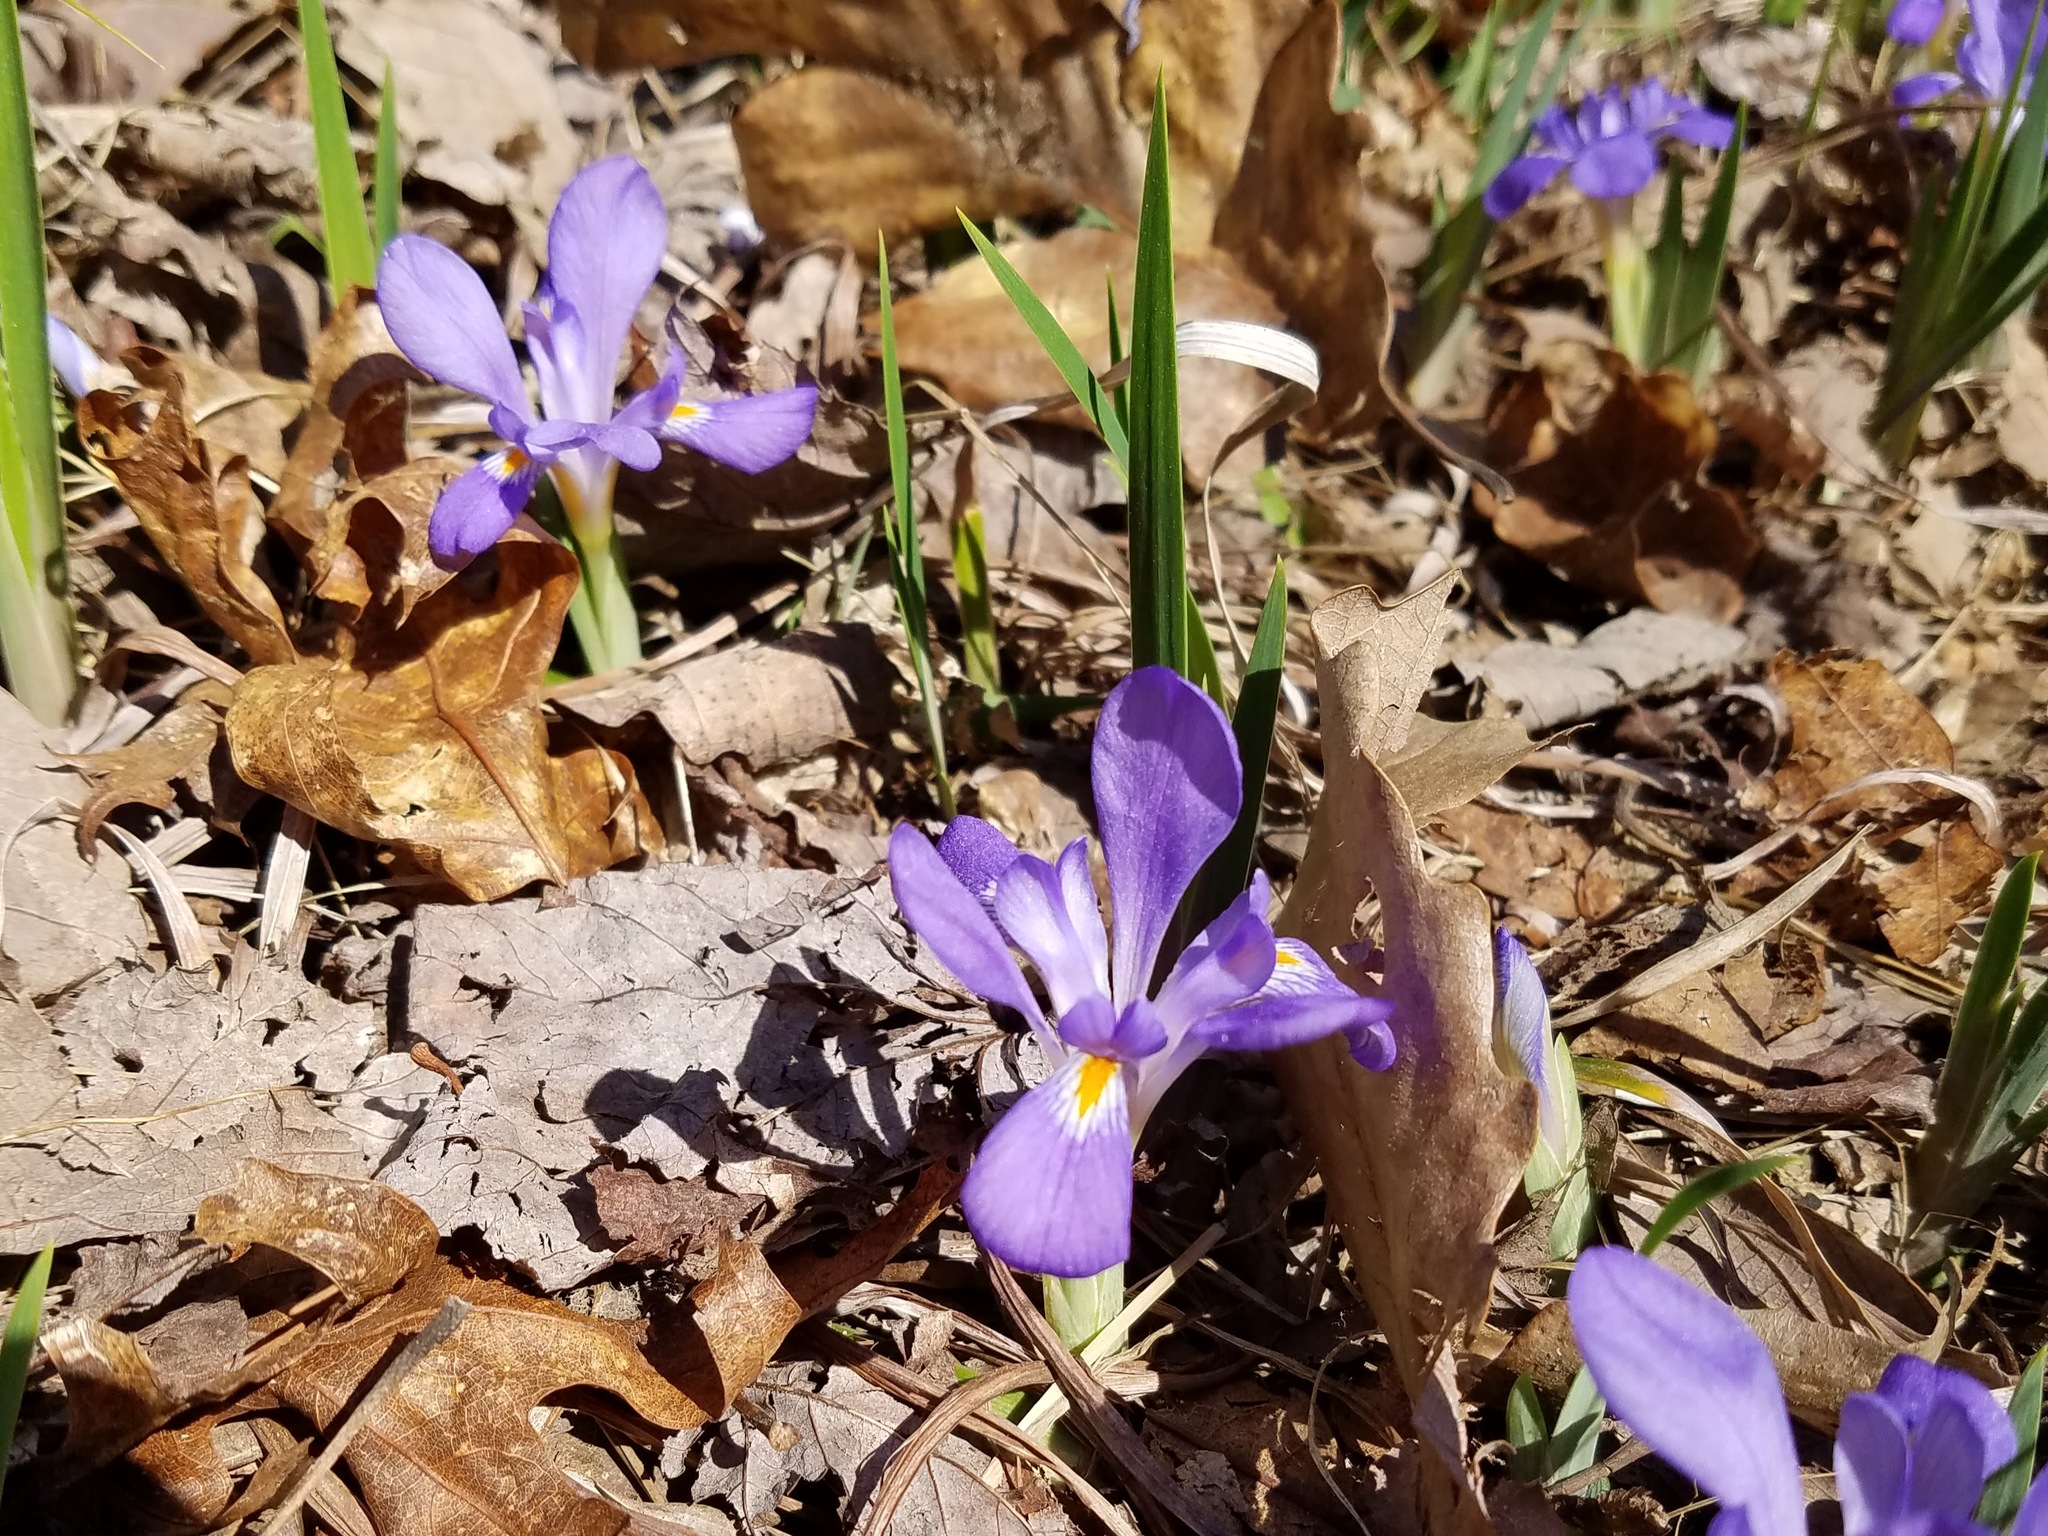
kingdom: Plantae
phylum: Tracheophyta
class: Liliopsida
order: Asparagales
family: Iridaceae
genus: Iris
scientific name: Iris verna
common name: Dwarf iris
